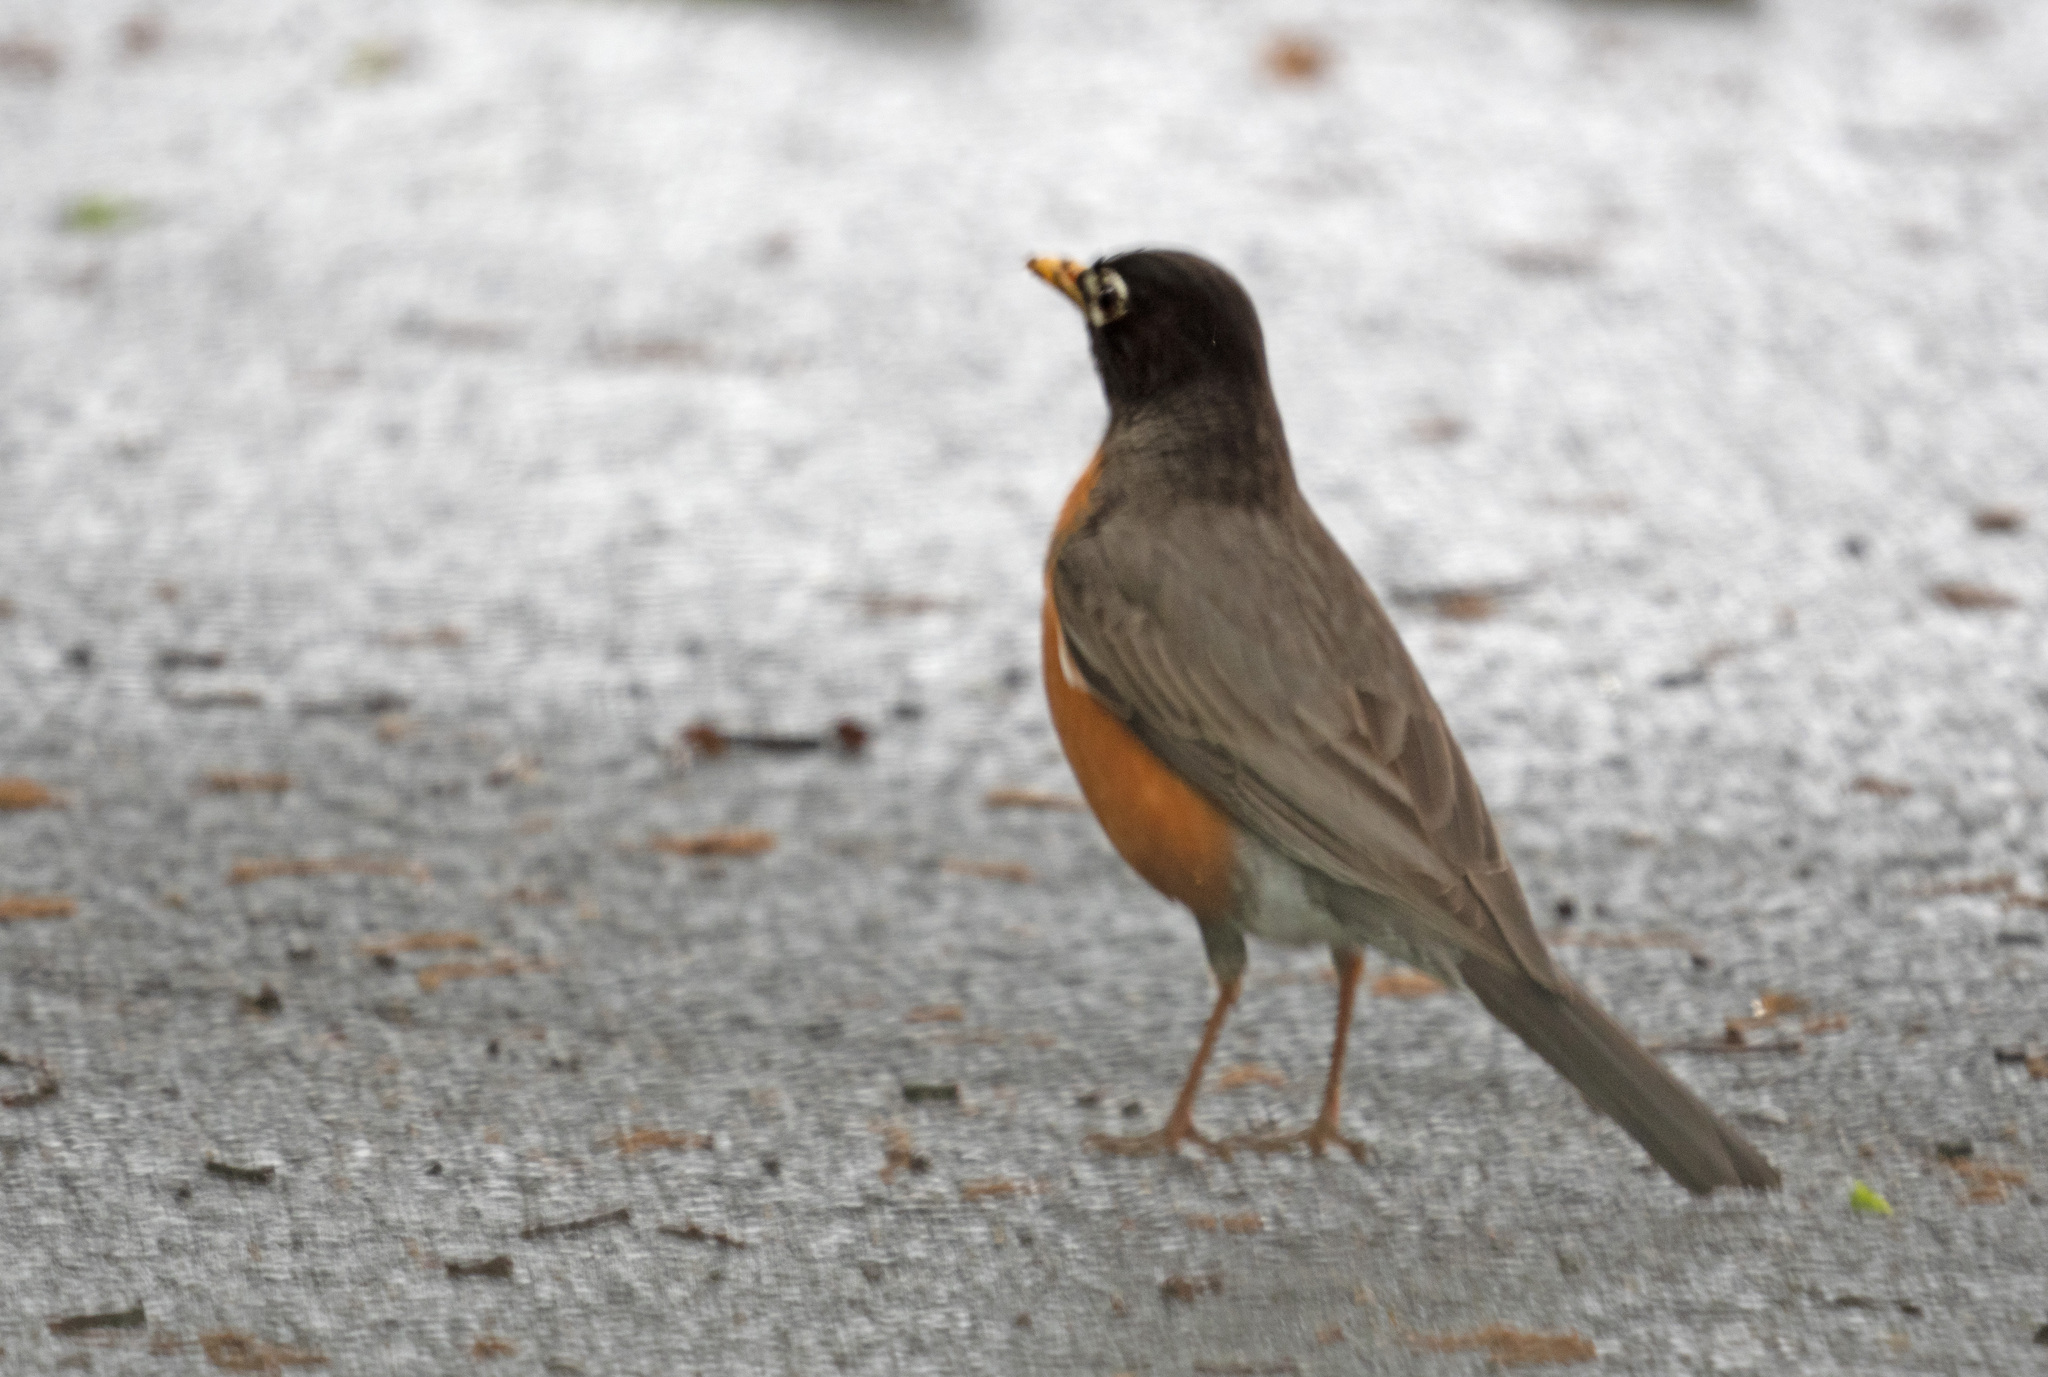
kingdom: Animalia
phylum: Chordata
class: Aves
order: Passeriformes
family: Turdidae
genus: Turdus
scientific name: Turdus migratorius
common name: American robin
